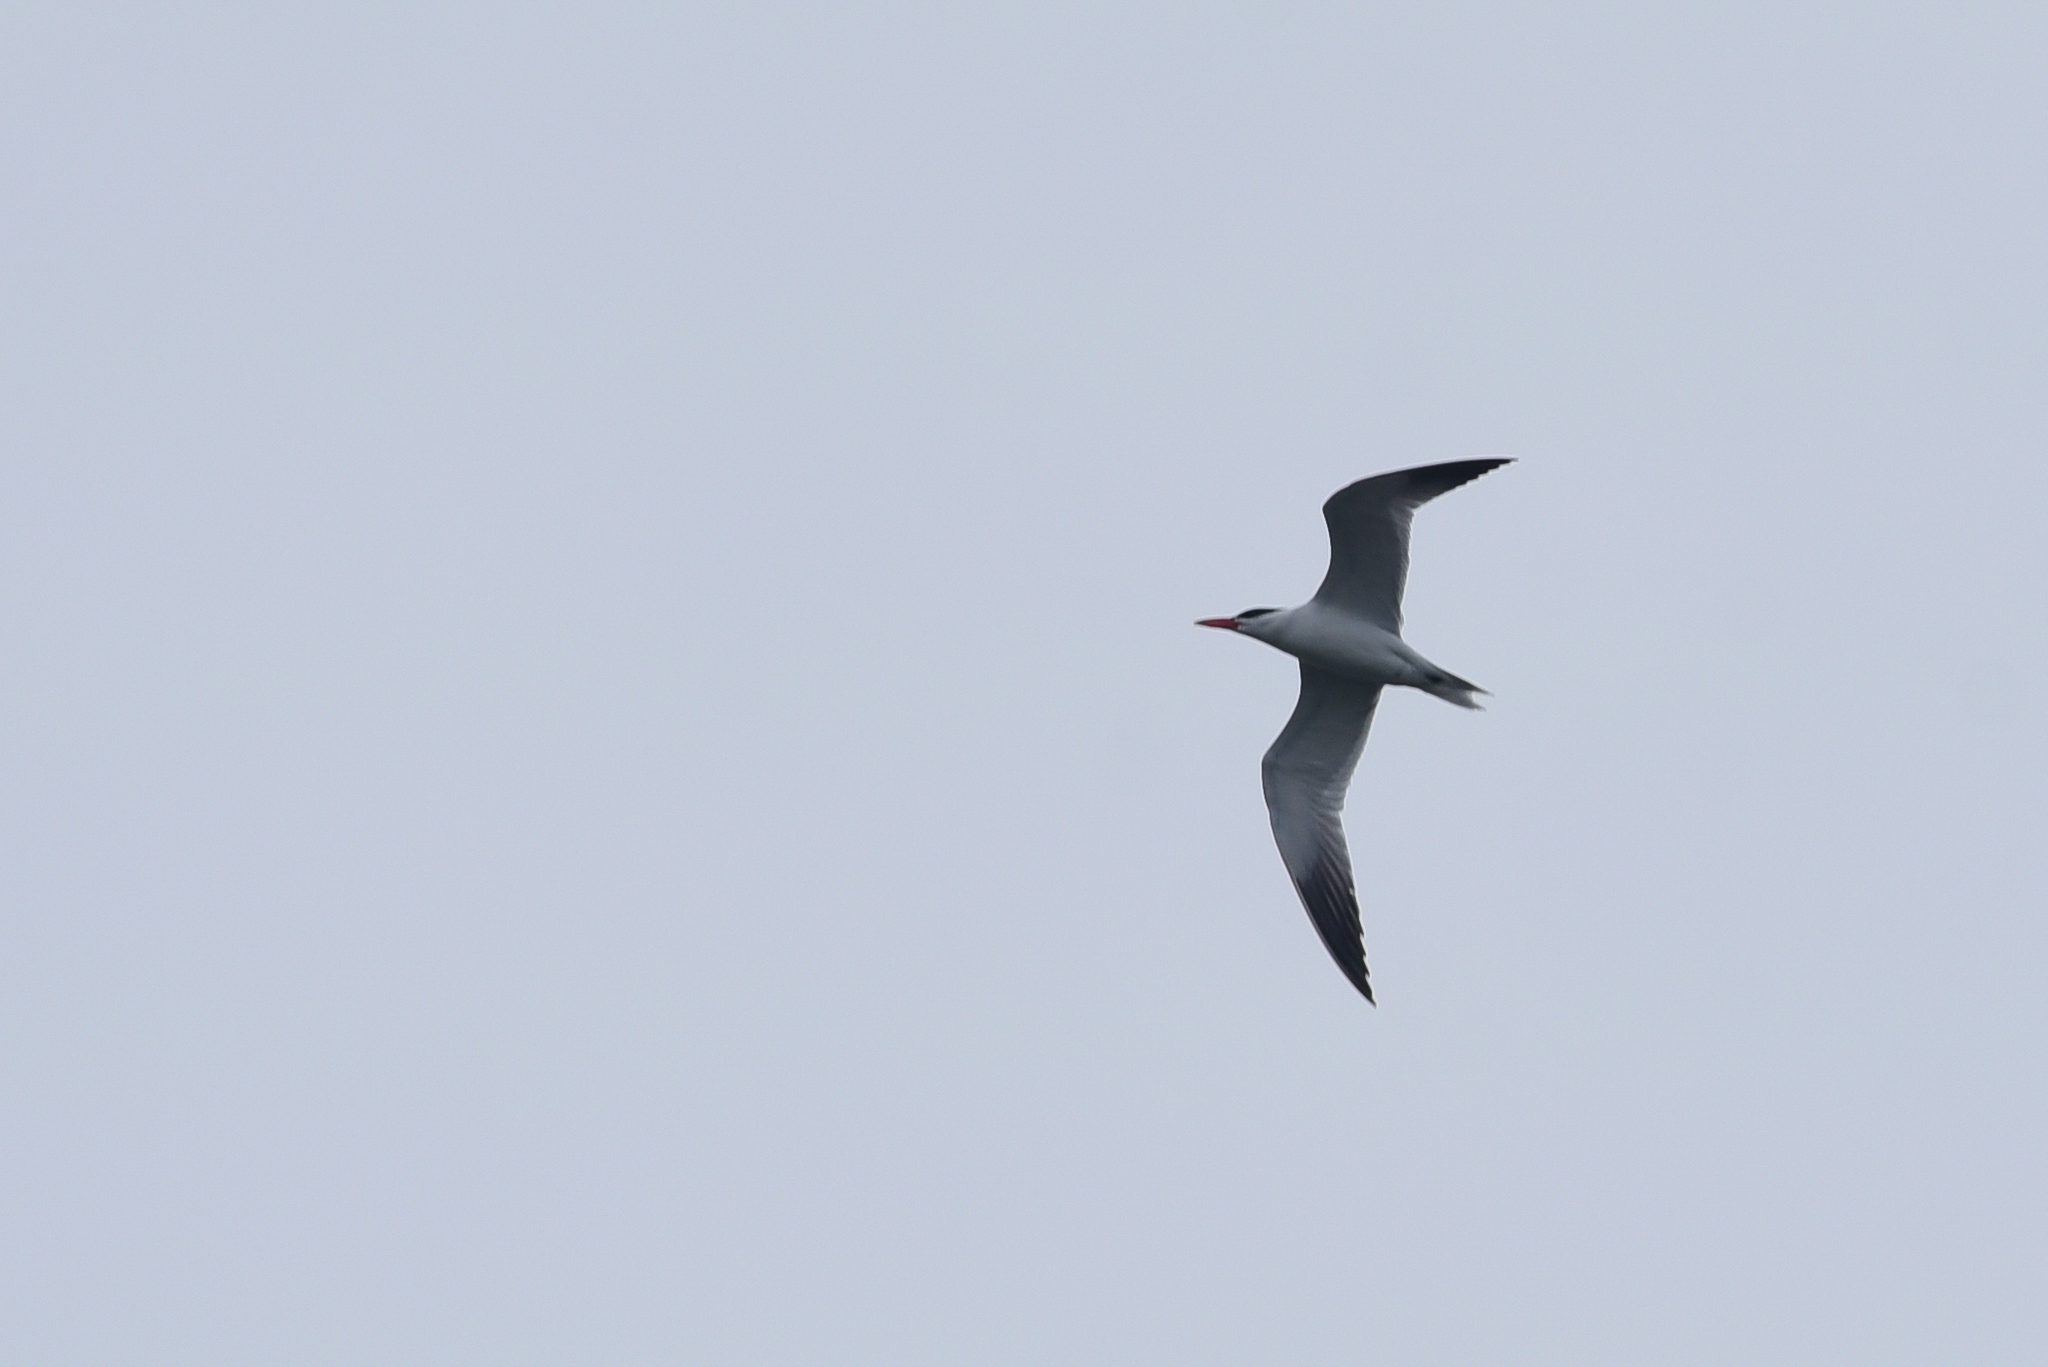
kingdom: Animalia
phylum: Chordata
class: Aves
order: Charadriiformes
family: Laridae
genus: Hydroprogne
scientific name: Hydroprogne caspia
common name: Caspian tern
